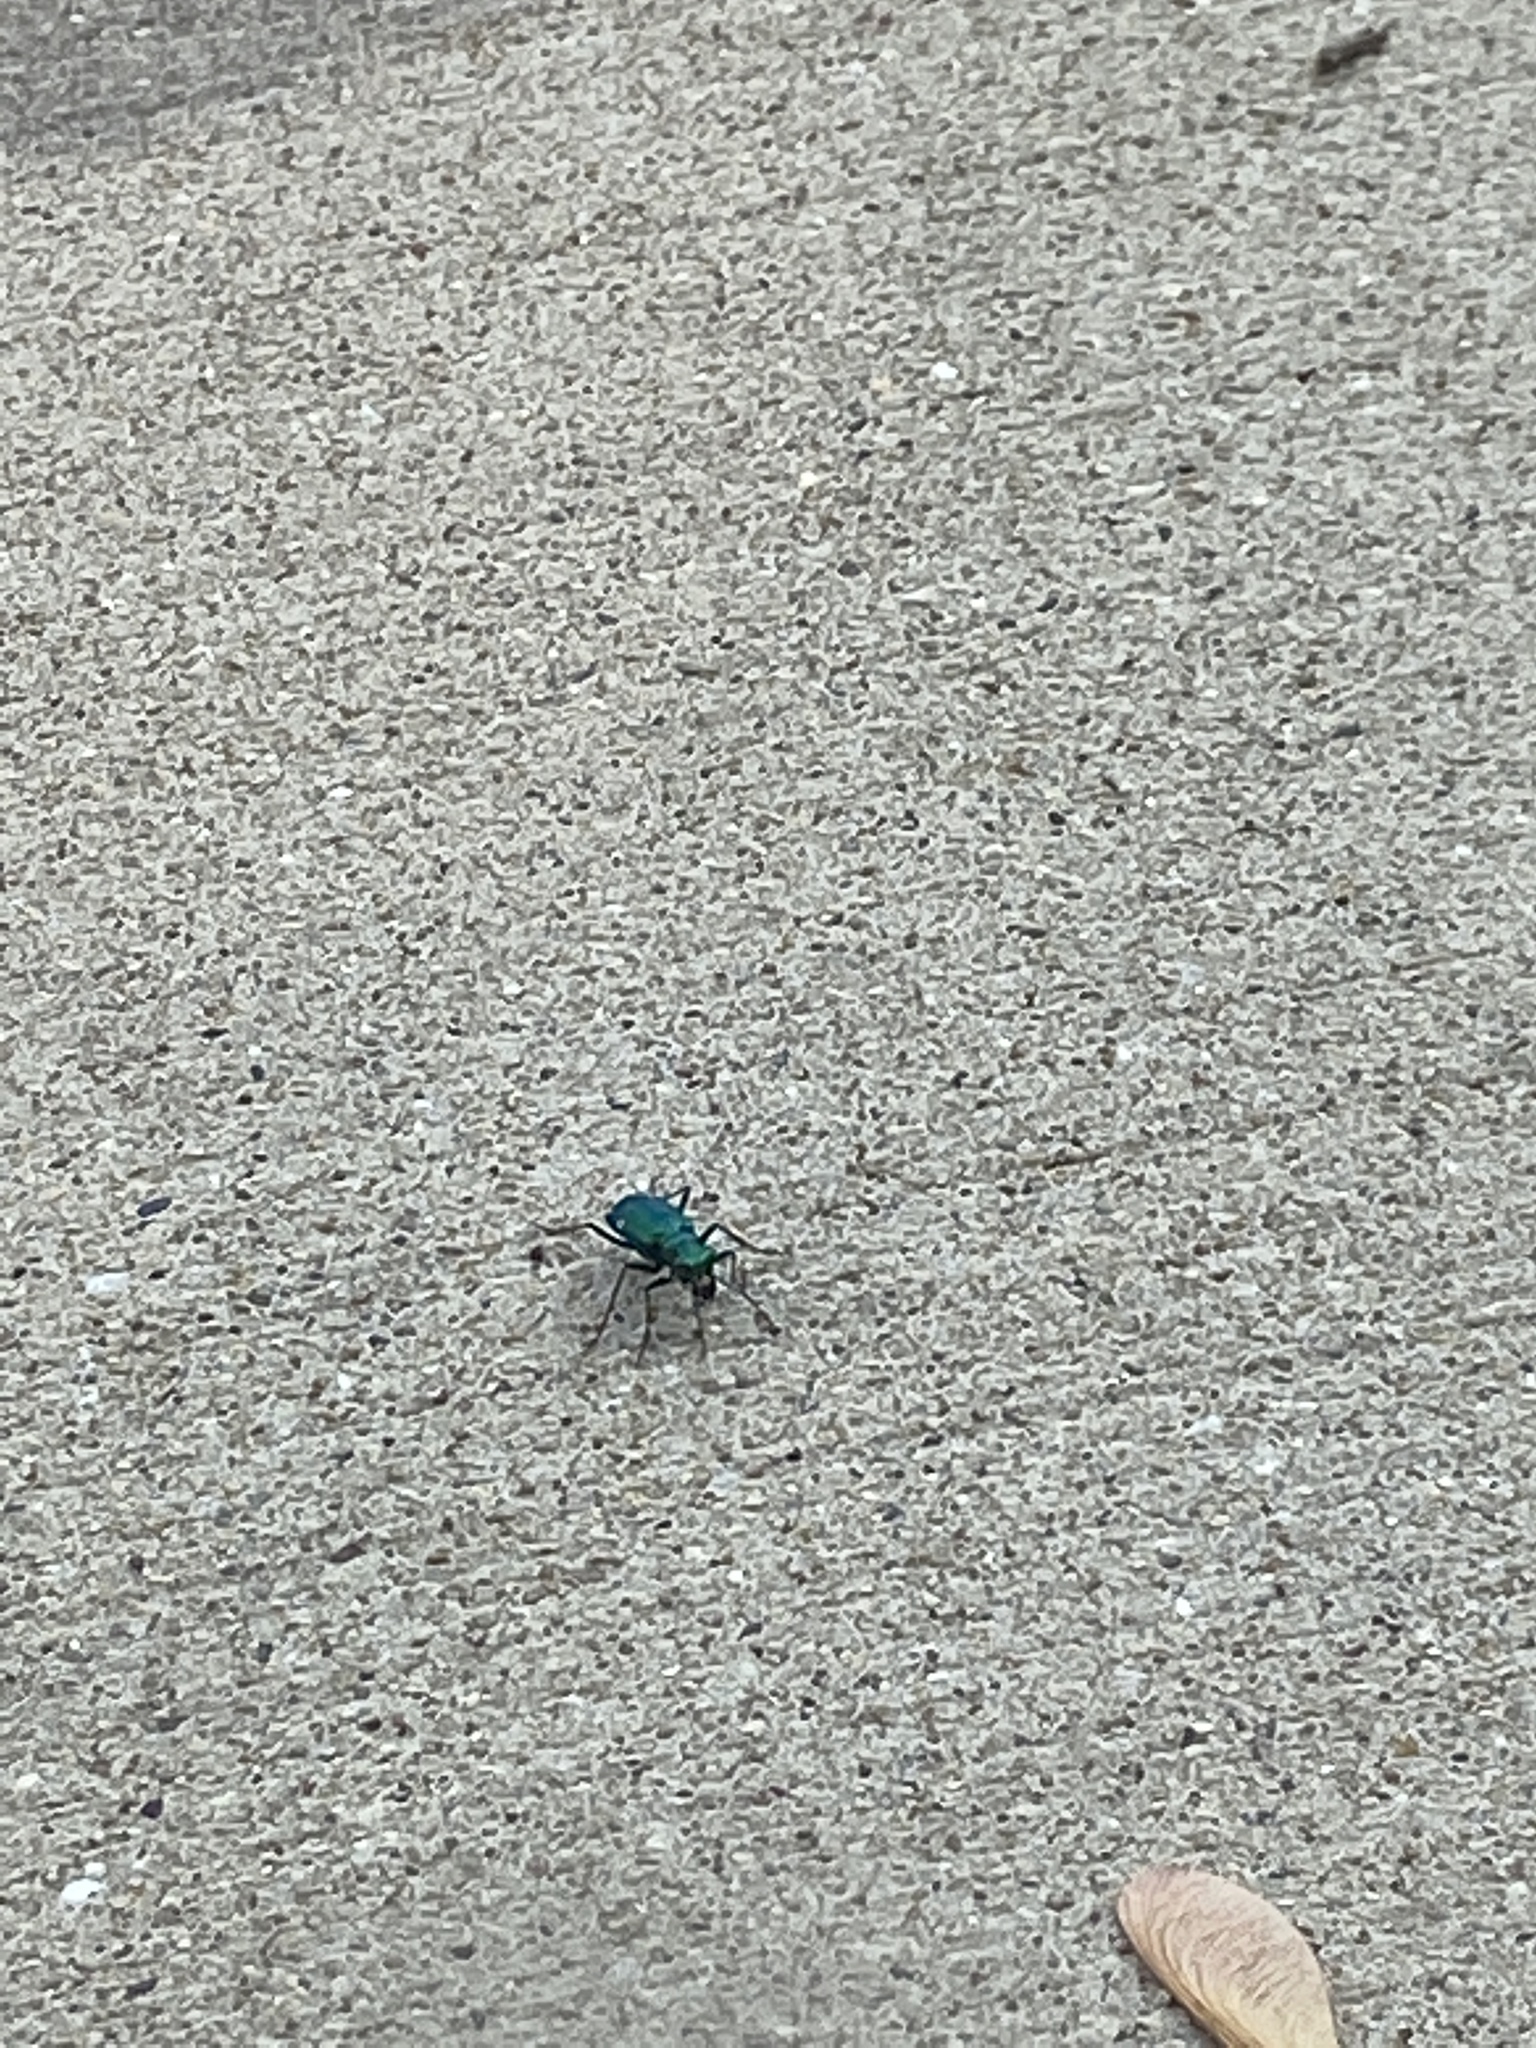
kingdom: Animalia
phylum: Arthropoda
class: Insecta
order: Coleoptera
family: Carabidae
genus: Cicindela
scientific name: Cicindela sexguttata
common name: Six-spotted tiger beetle
